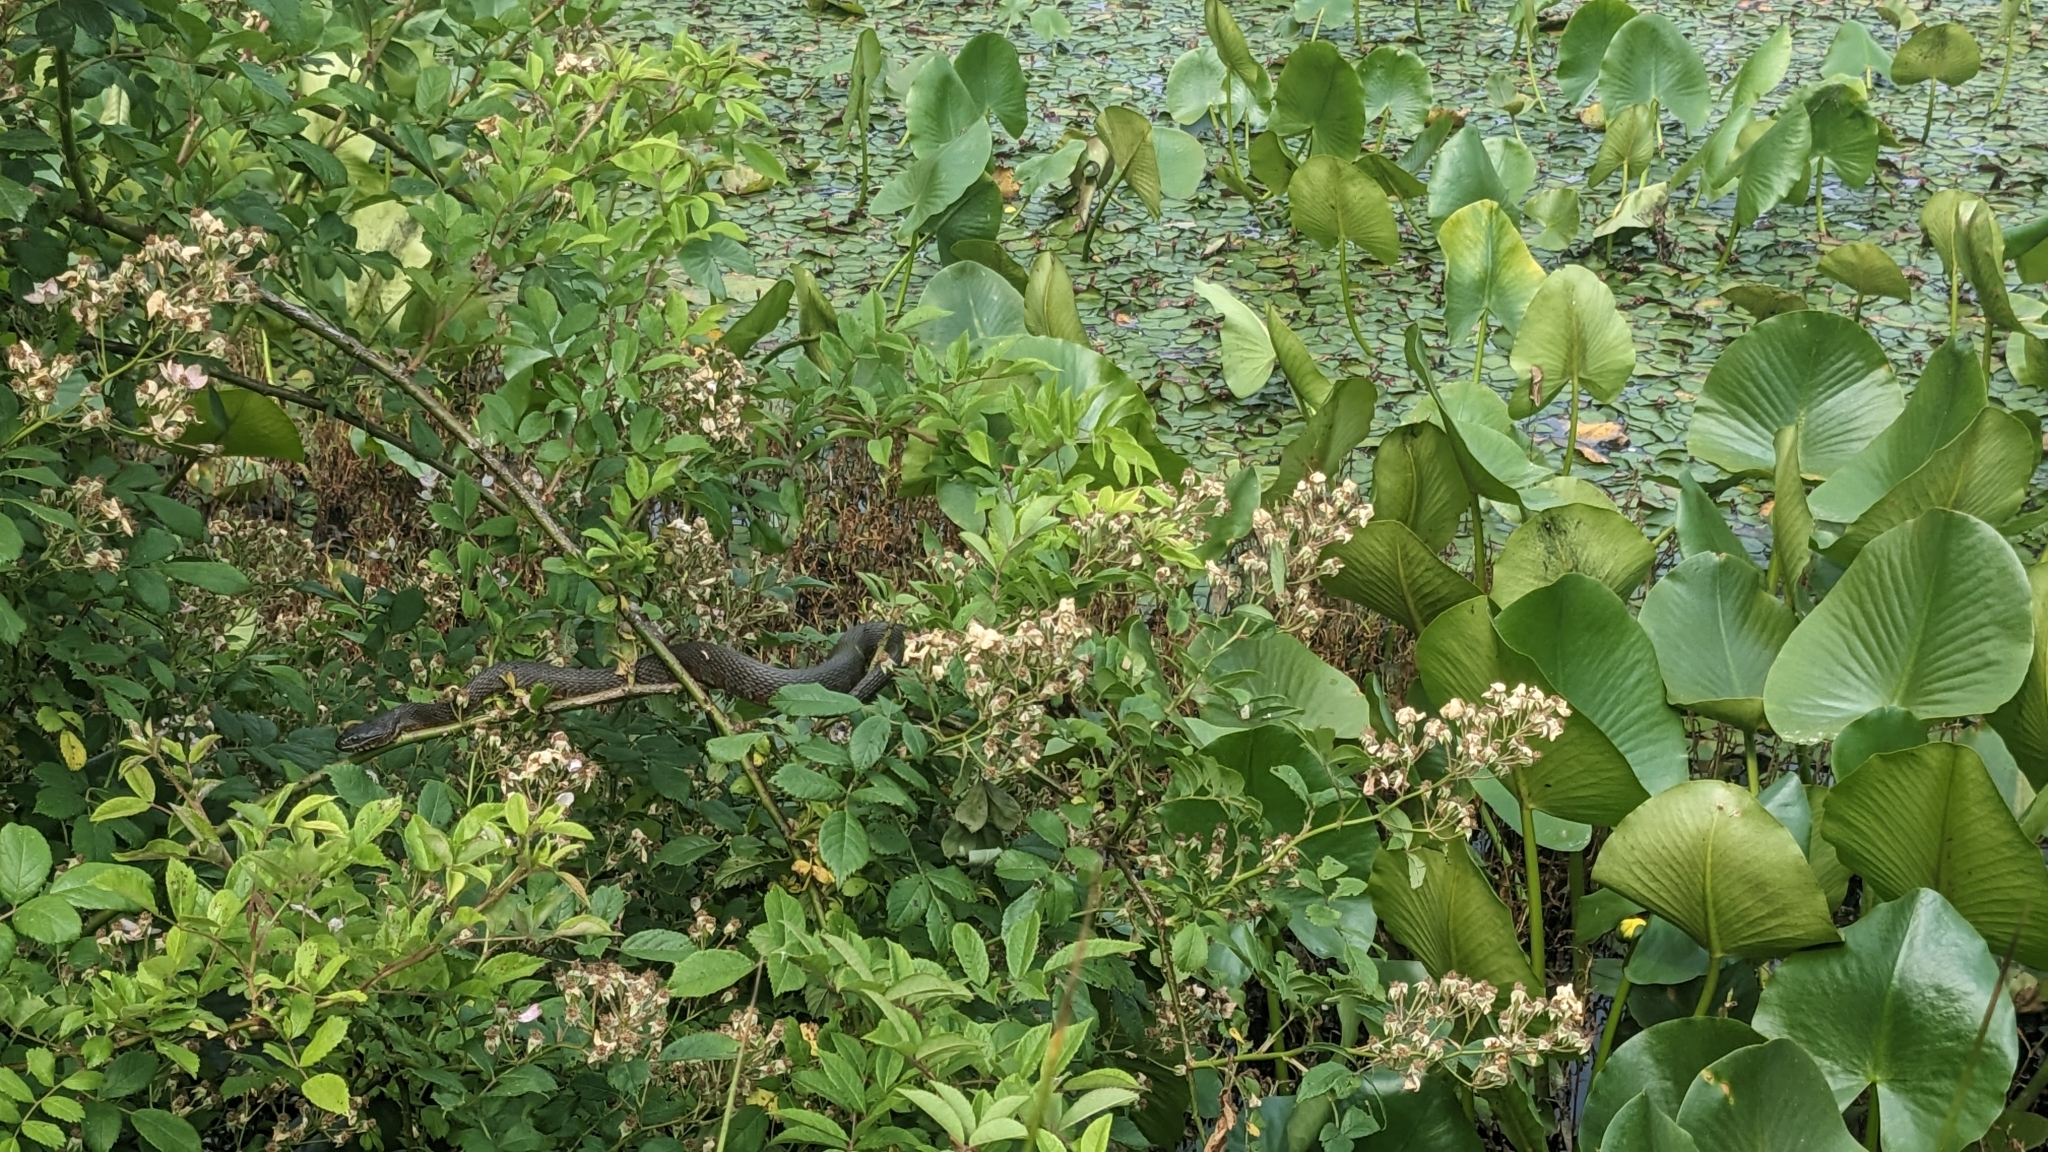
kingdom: Animalia
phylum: Chordata
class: Squamata
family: Colubridae
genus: Nerodia
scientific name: Nerodia sipedon
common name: Northern water snake
